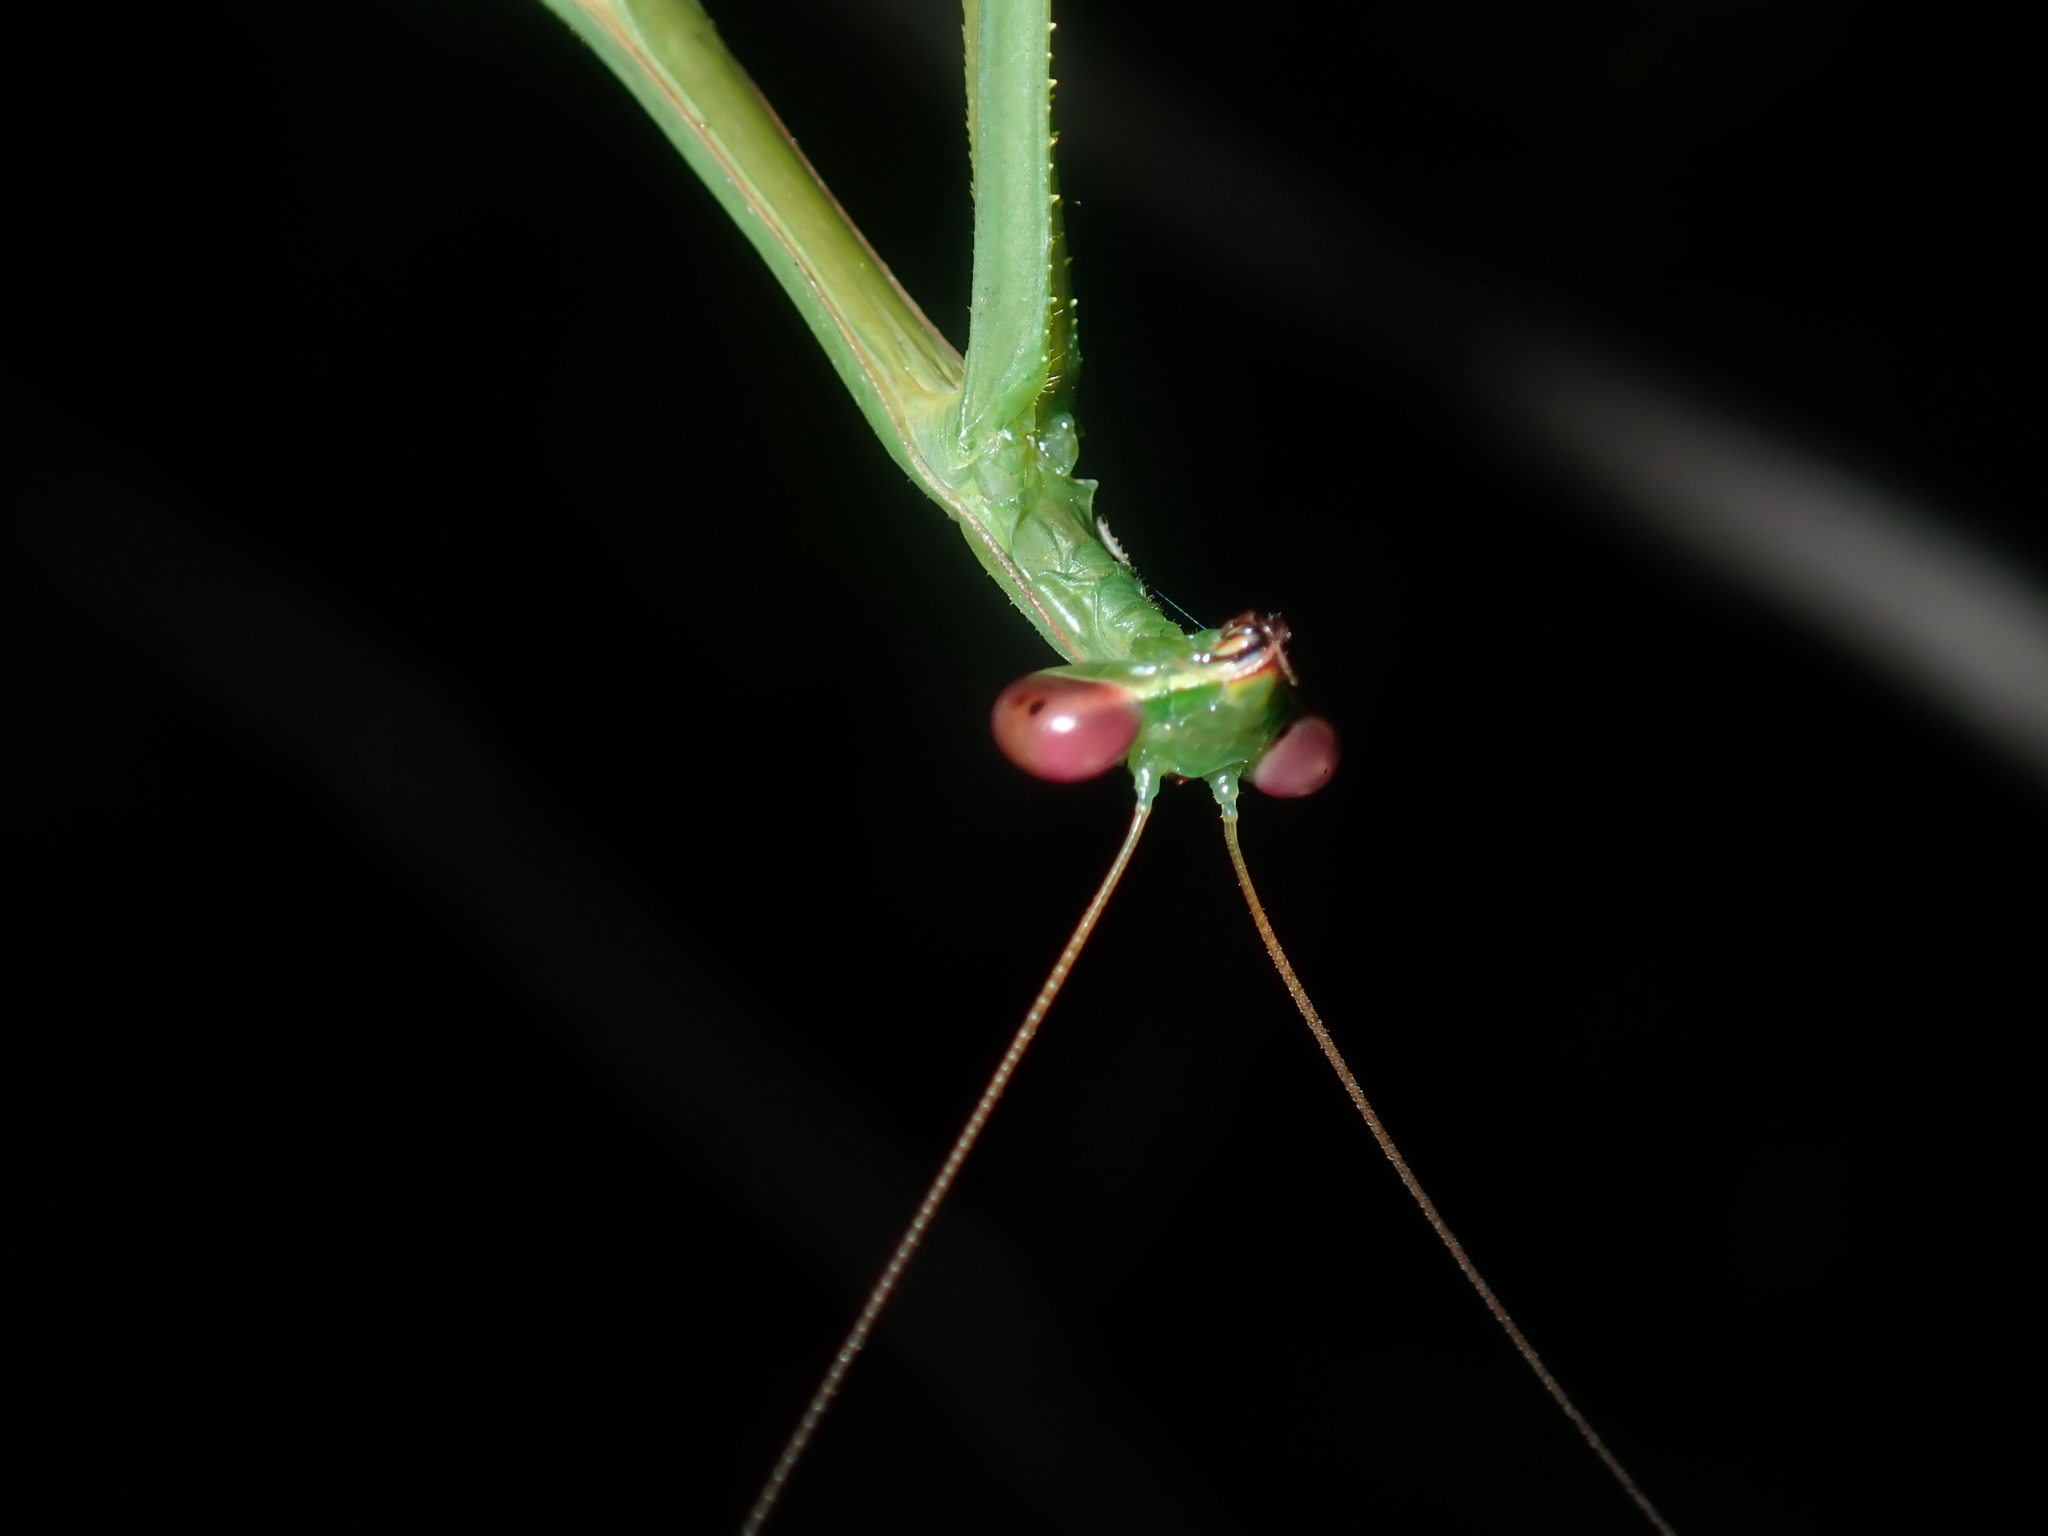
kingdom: Animalia
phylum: Arthropoda
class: Insecta
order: Mantodea
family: Mantidae
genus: Pseudomantis
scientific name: Pseudomantis albofimbriata
